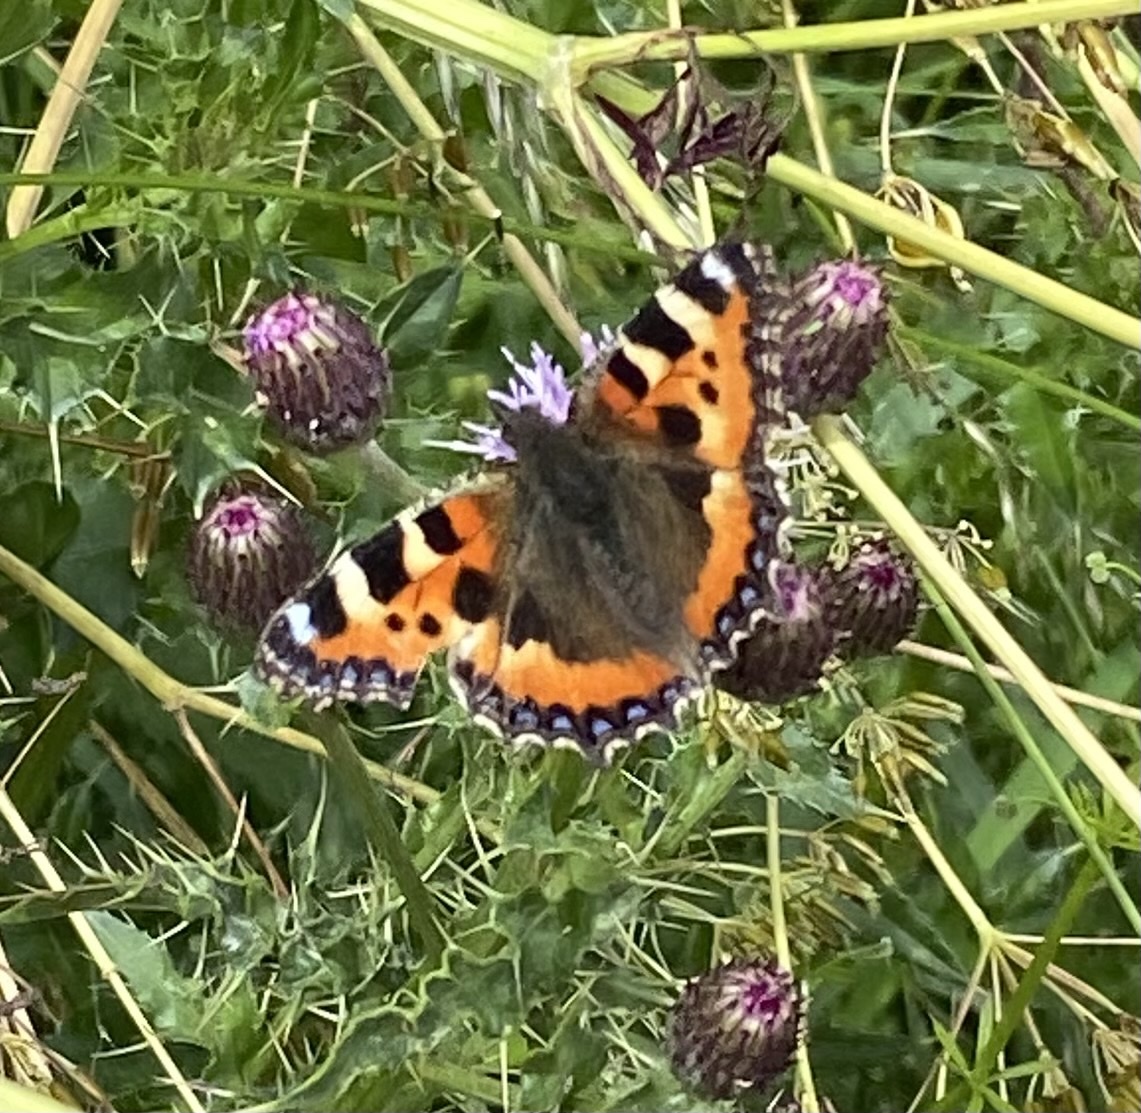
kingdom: Animalia
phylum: Arthropoda
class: Insecta
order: Lepidoptera
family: Nymphalidae
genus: Aglais
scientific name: Aglais urticae
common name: Small tortoiseshell
